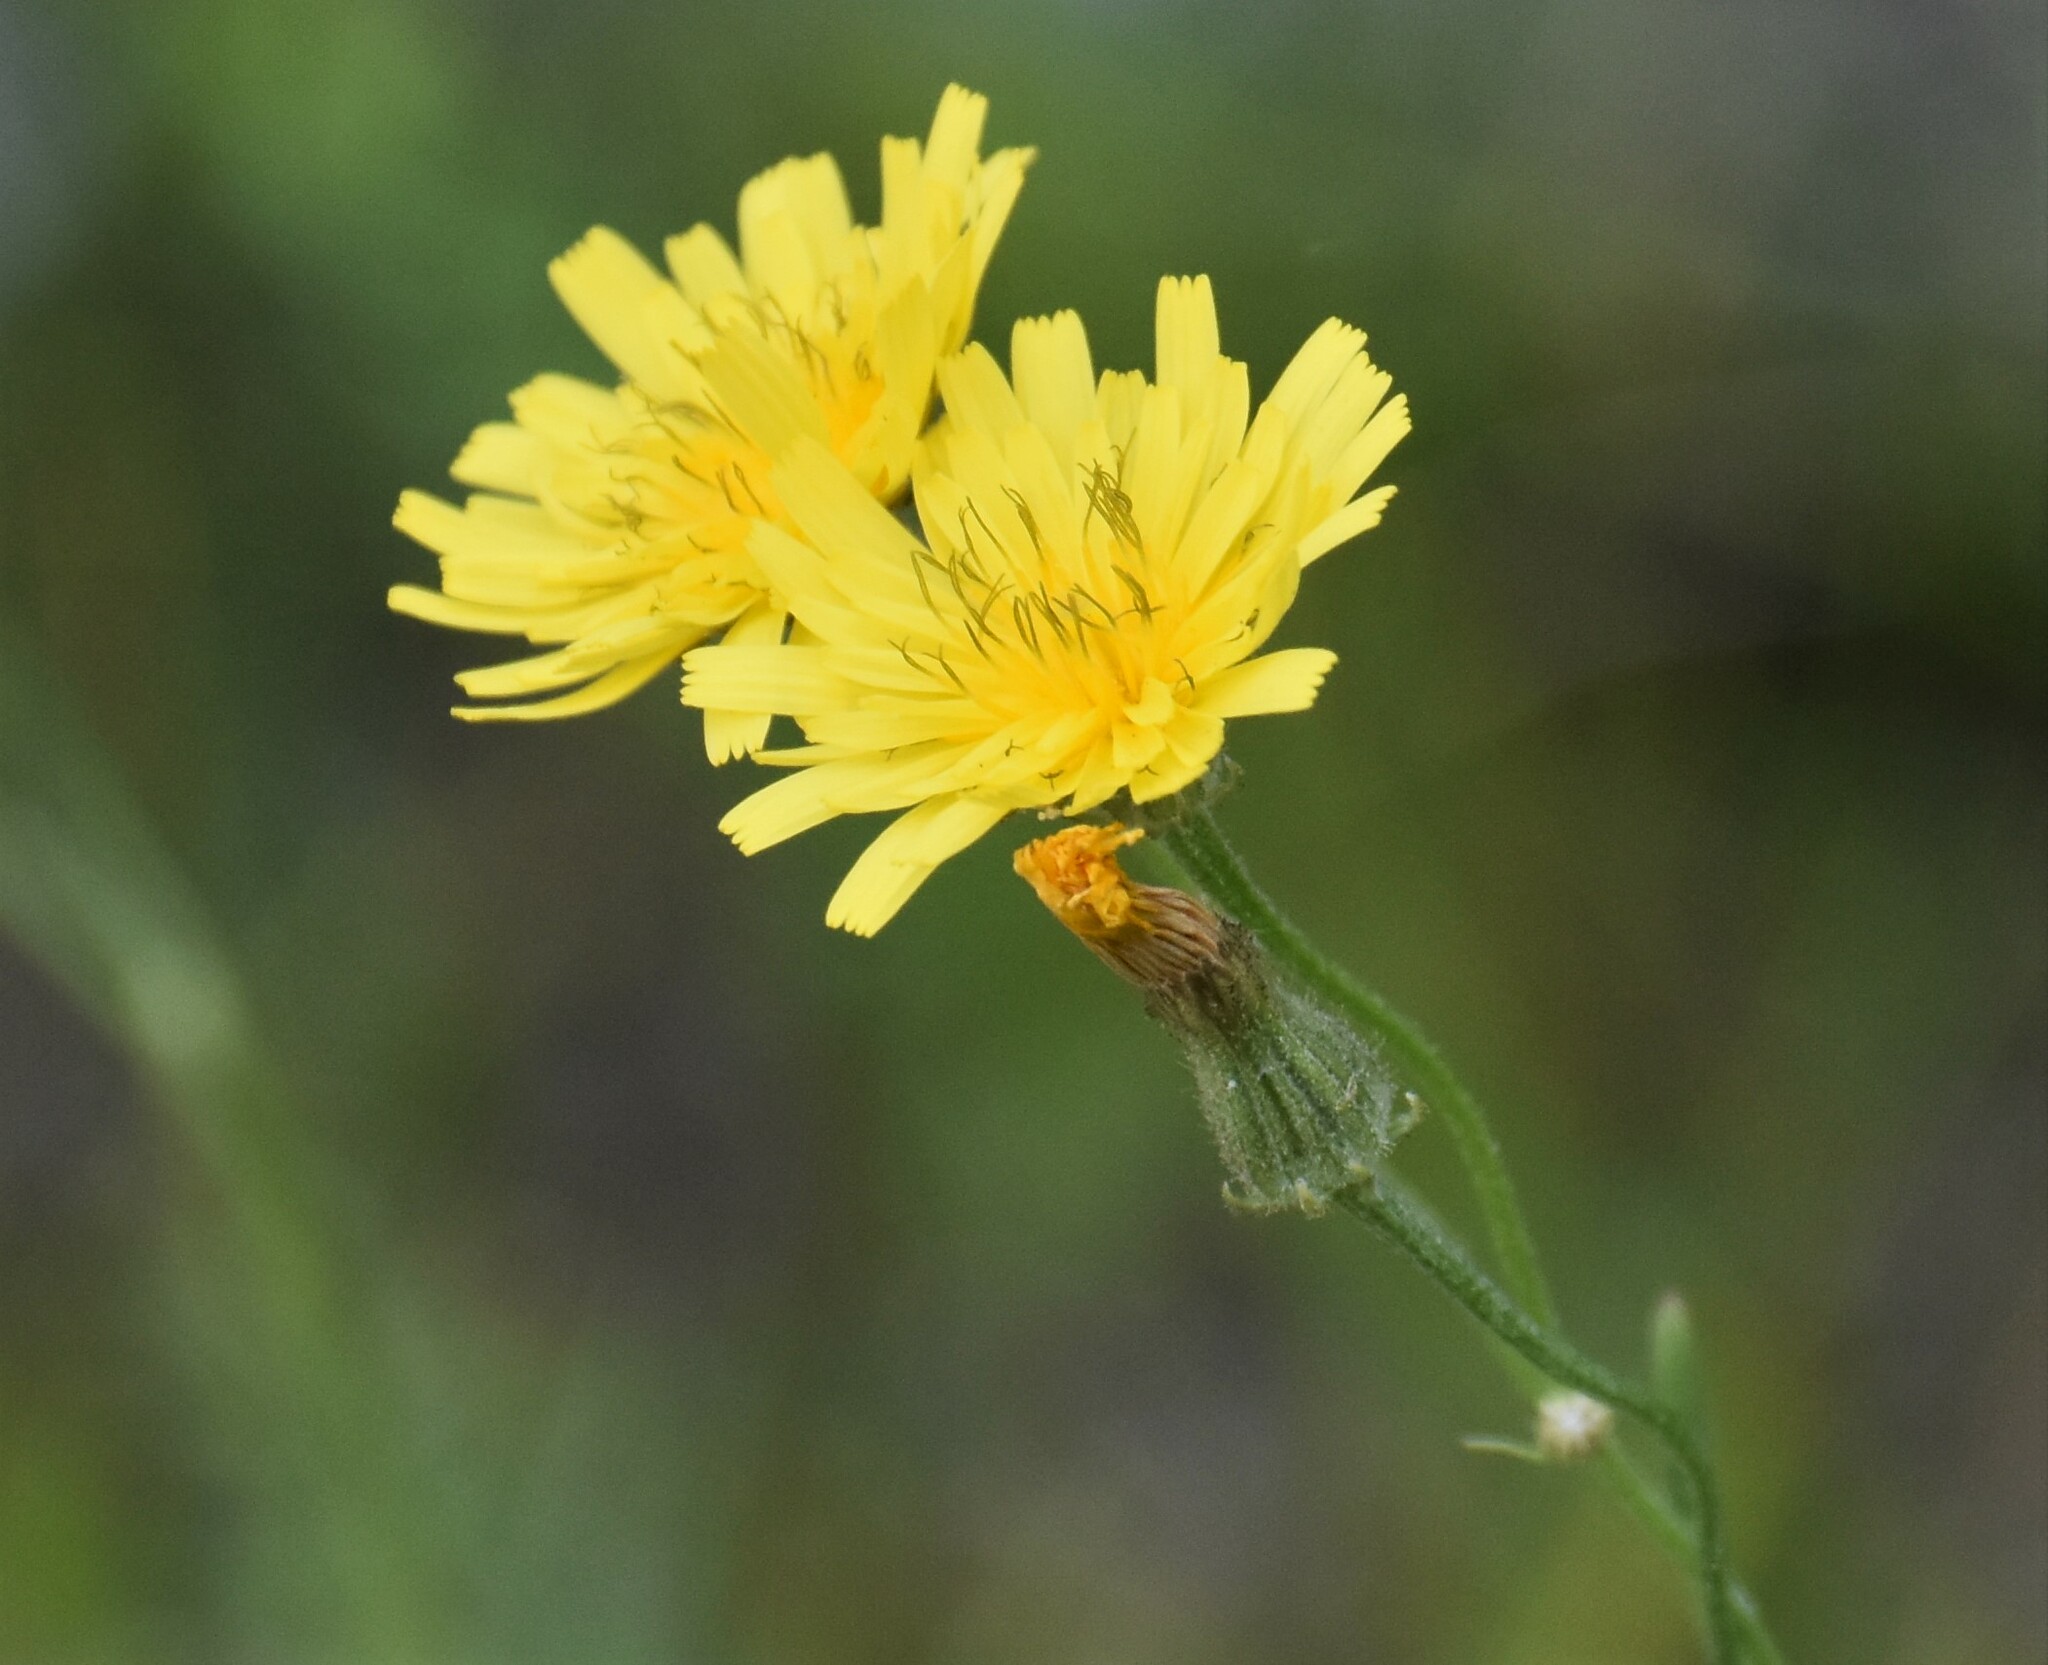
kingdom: Plantae
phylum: Tracheophyta
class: Magnoliopsida
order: Asterales
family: Asteraceae
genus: Crepis
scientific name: Crepis tectorum
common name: Narrow-leaved hawk's-beard
